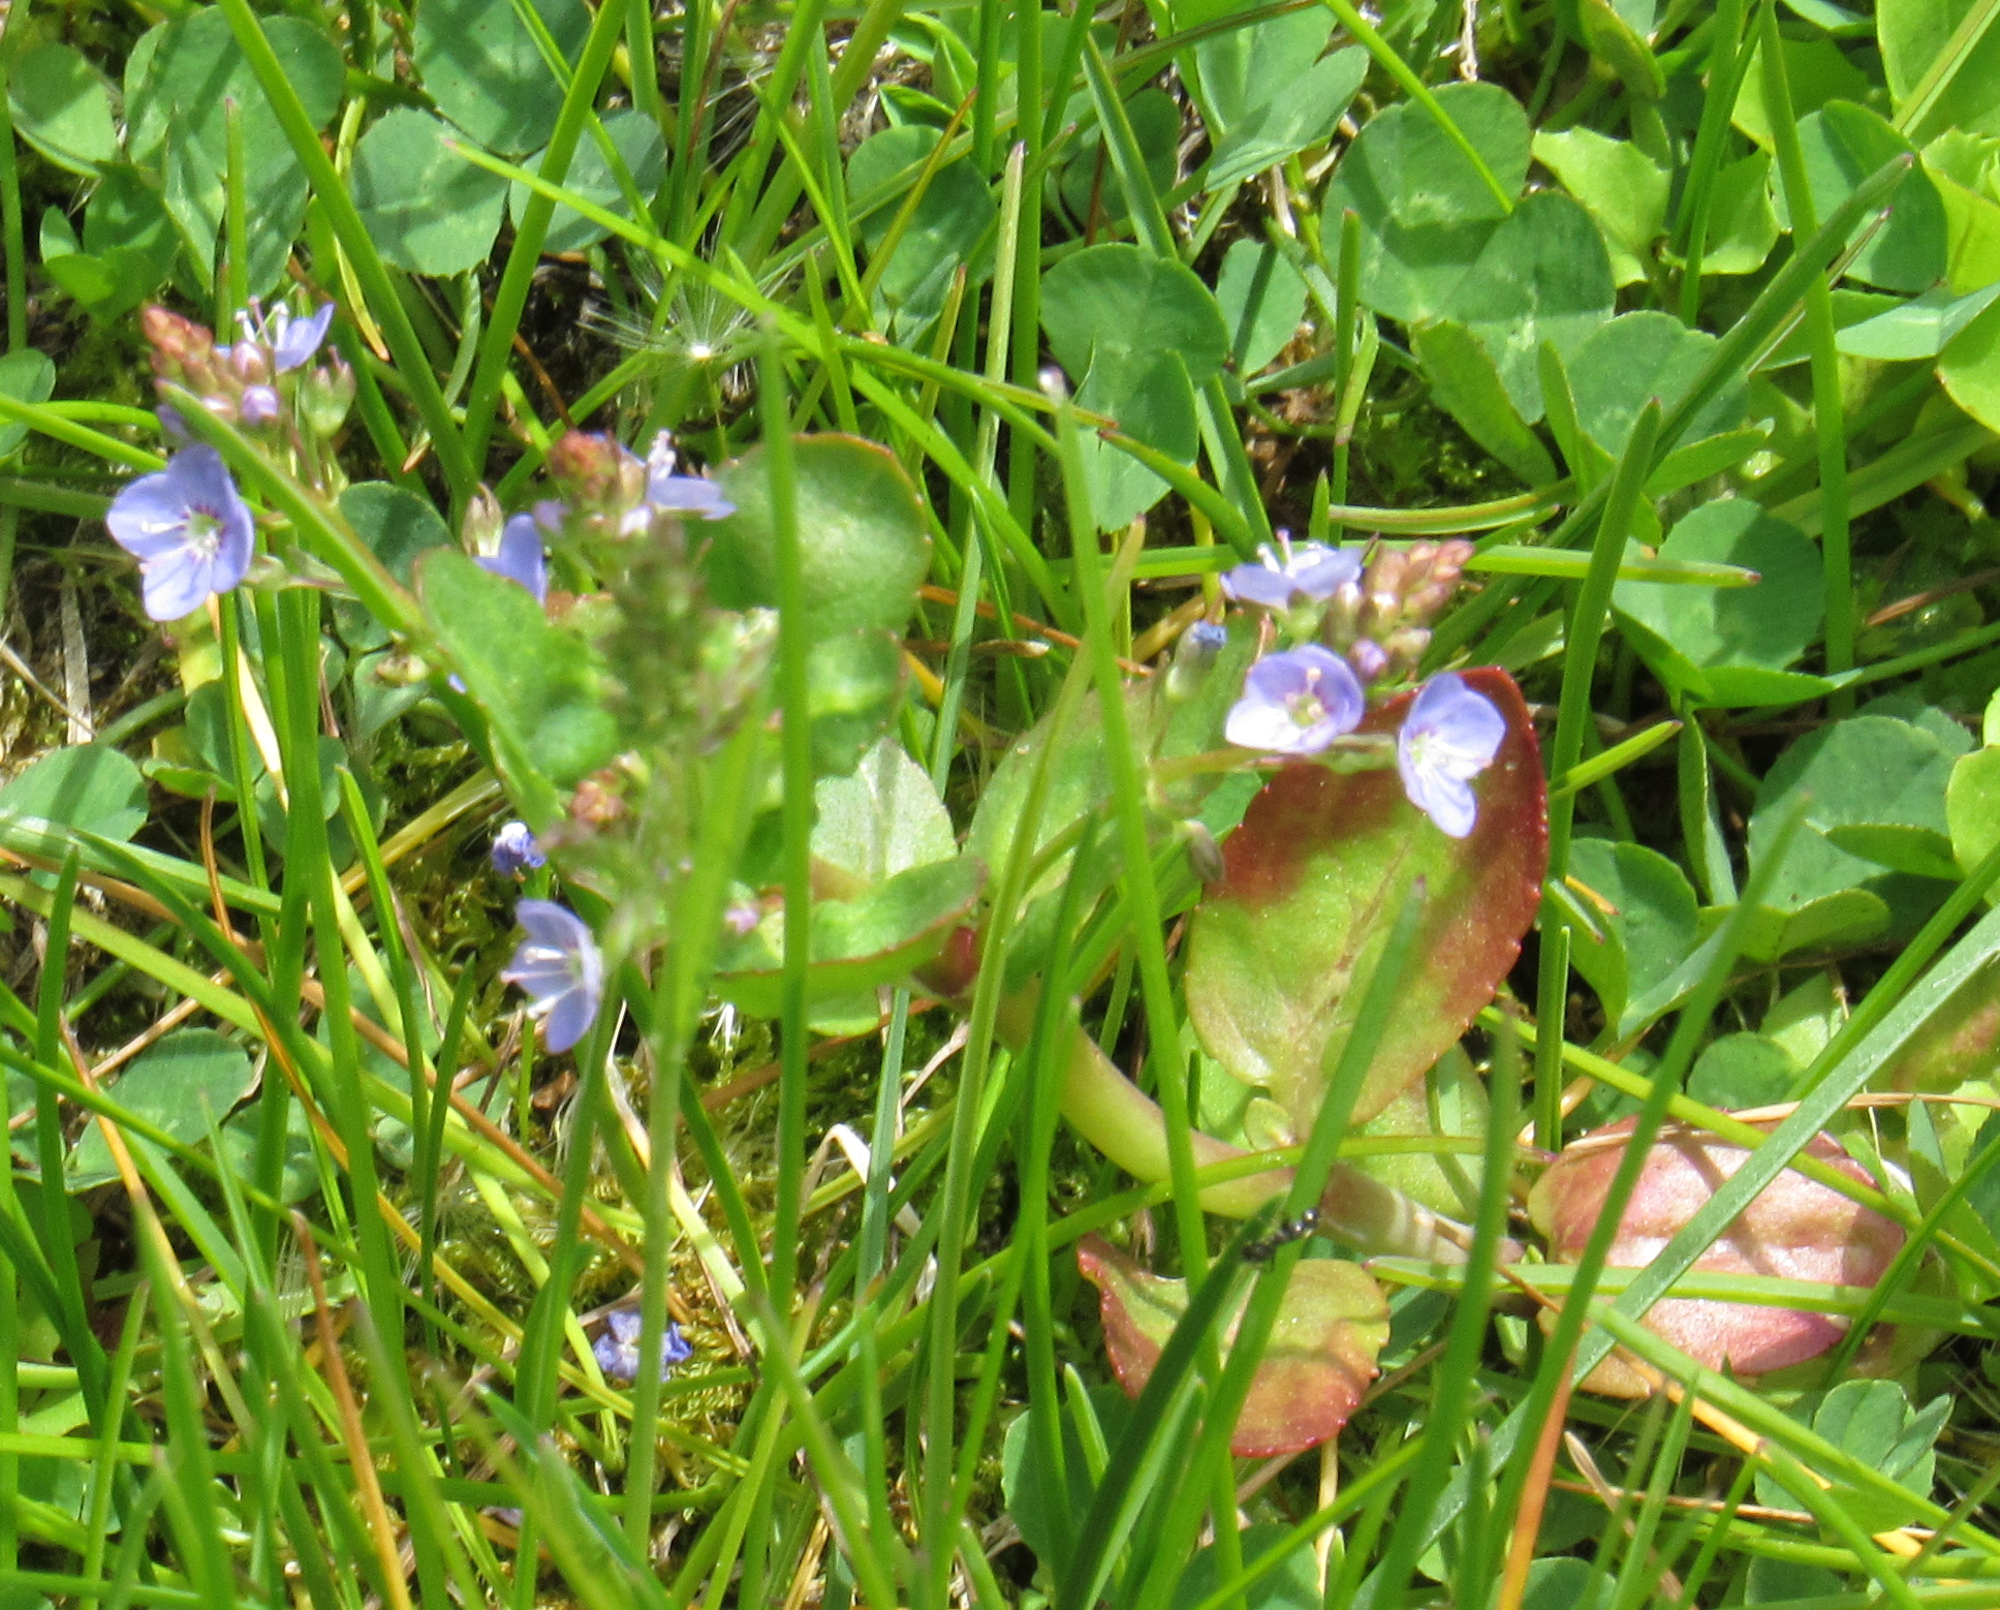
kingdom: Plantae
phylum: Tracheophyta
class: Magnoliopsida
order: Lamiales
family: Plantaginaceae
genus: Veronica
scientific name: Veronica americana
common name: American brooklime
